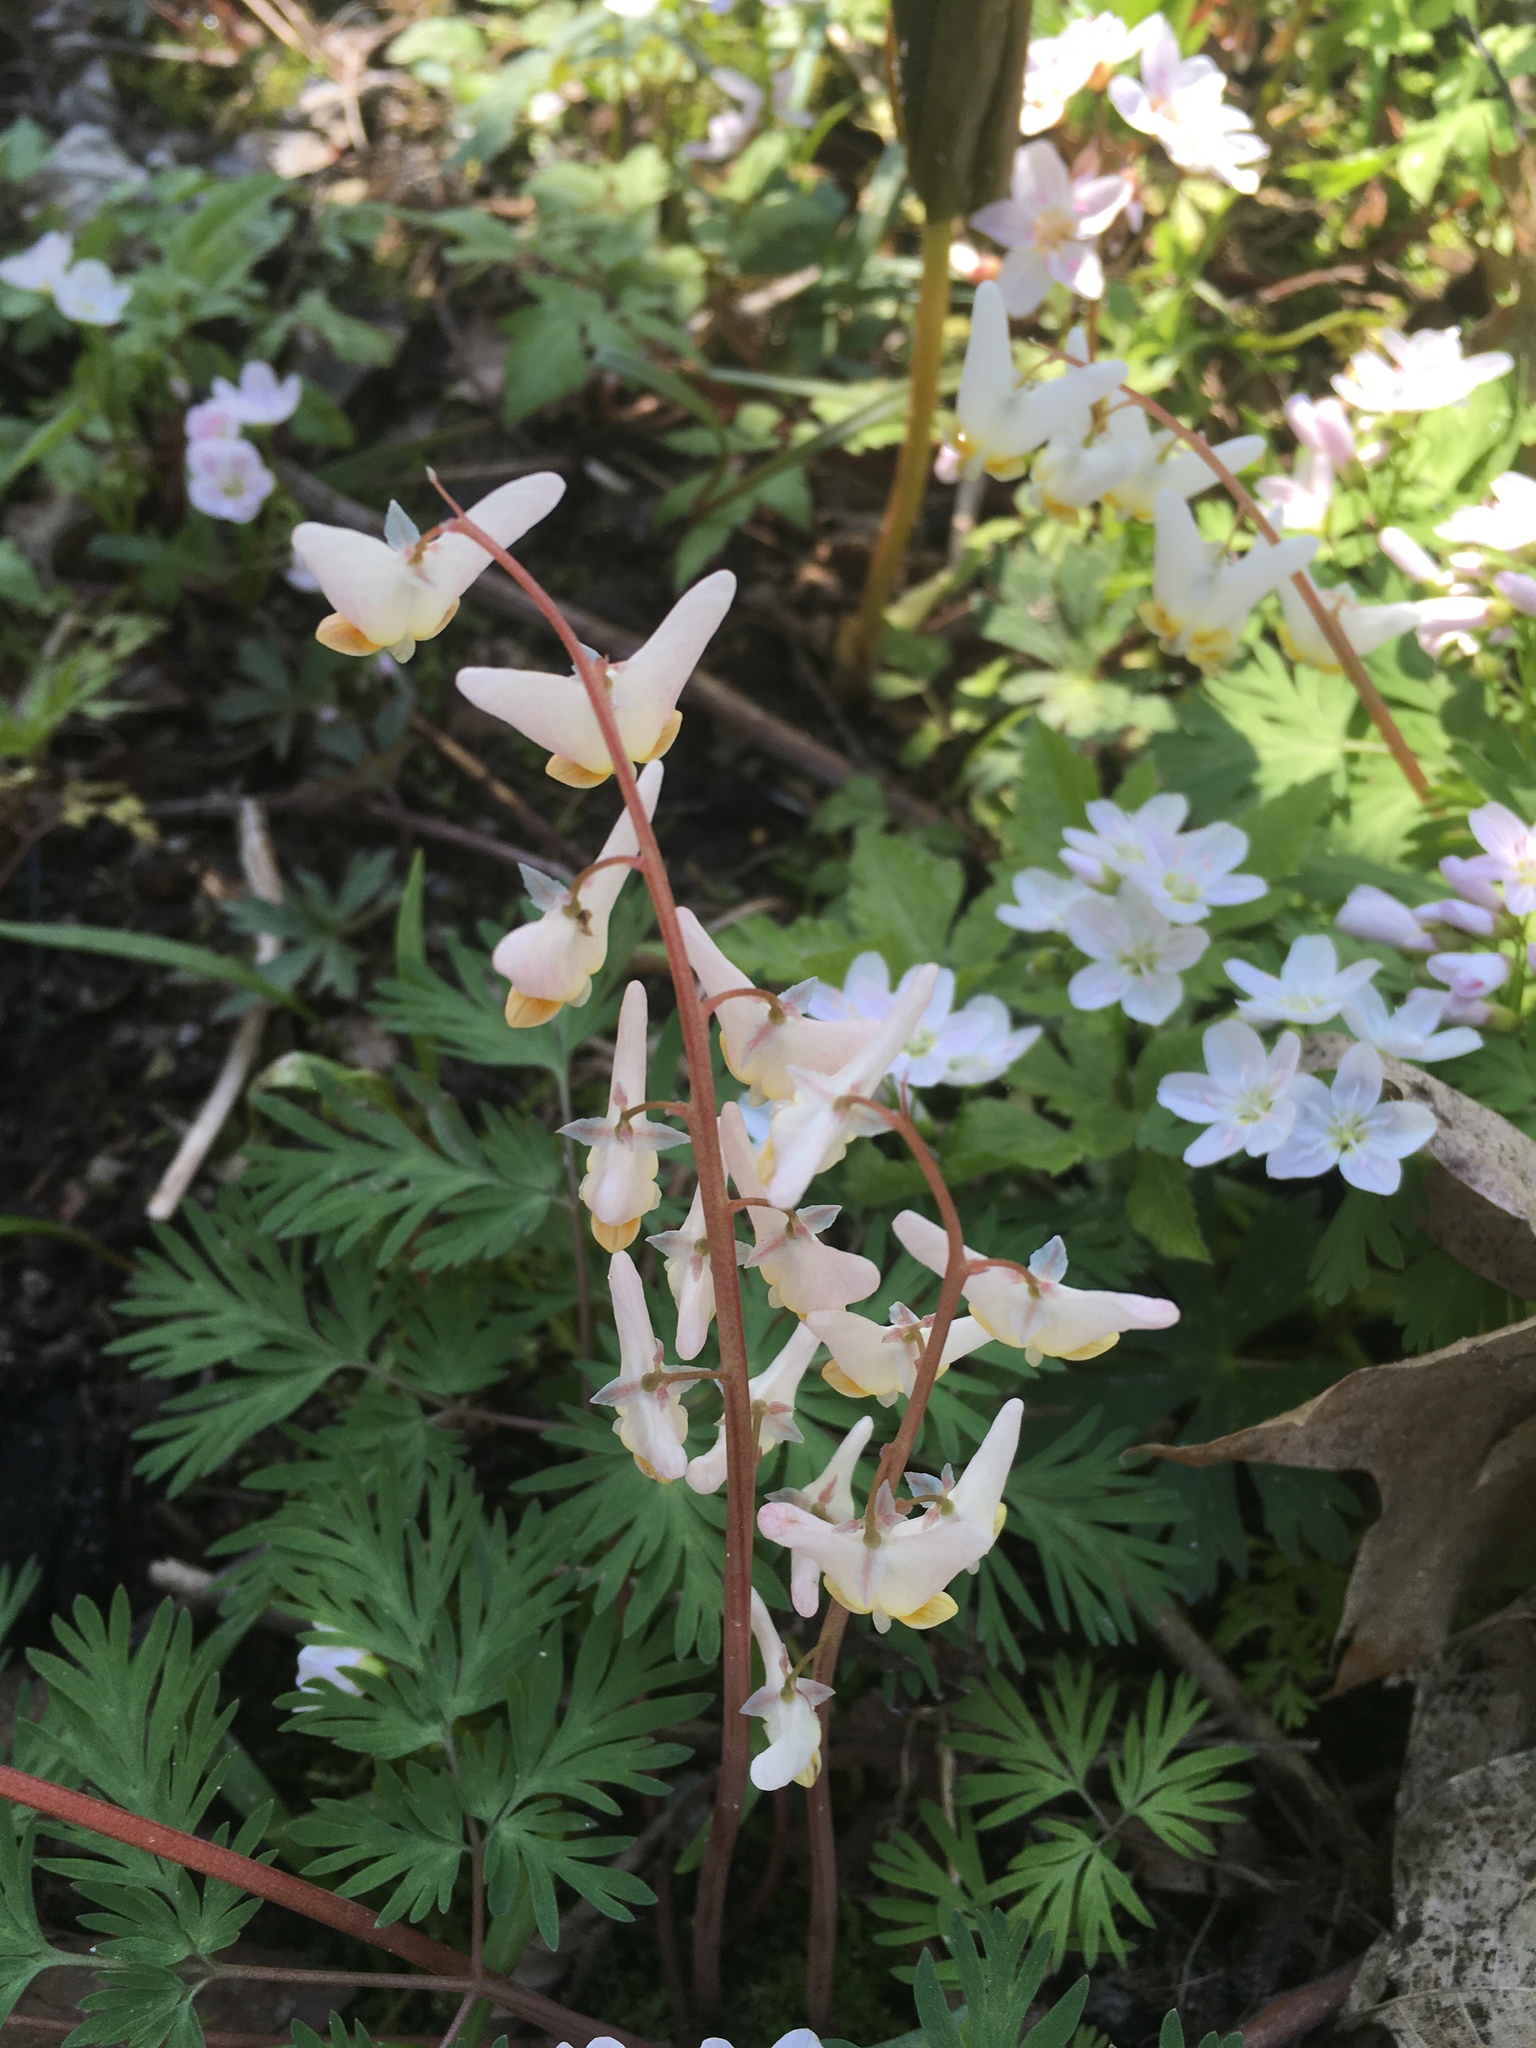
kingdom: Plantae
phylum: Tracheophyta
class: Magnoliopsida
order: Ranunculales
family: Papaveraceae
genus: Dicentra
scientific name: Dicentra cucullaria
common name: Dutchman's breeches
